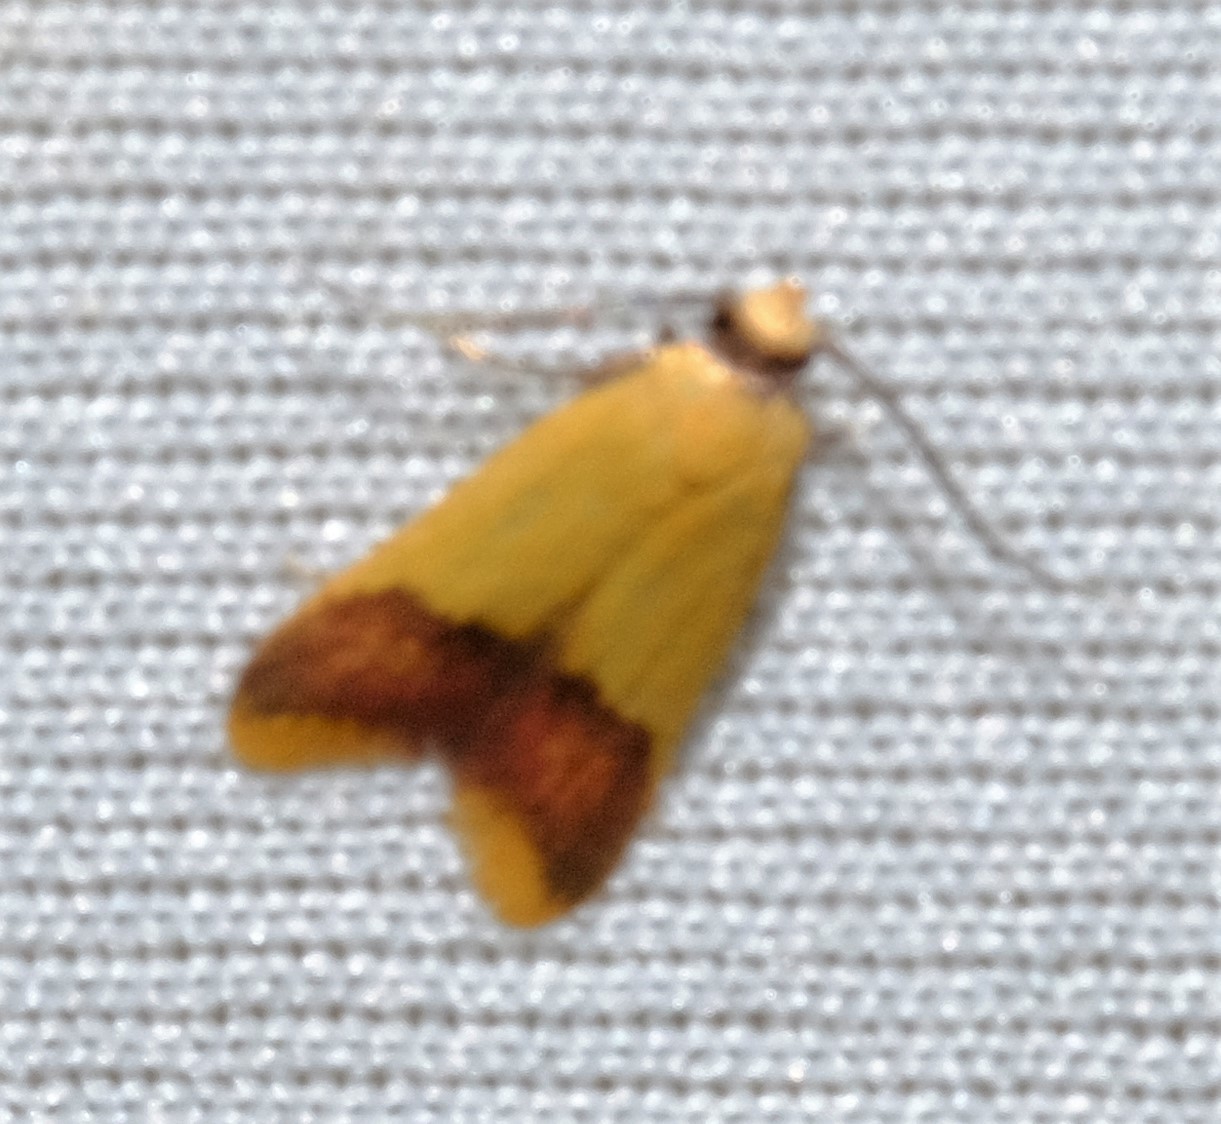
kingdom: Animalia
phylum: Arthropoda
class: Insecta
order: Lepidoptera
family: Oecophoridae
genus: Tachystola
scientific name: Tachystola thiasotis
